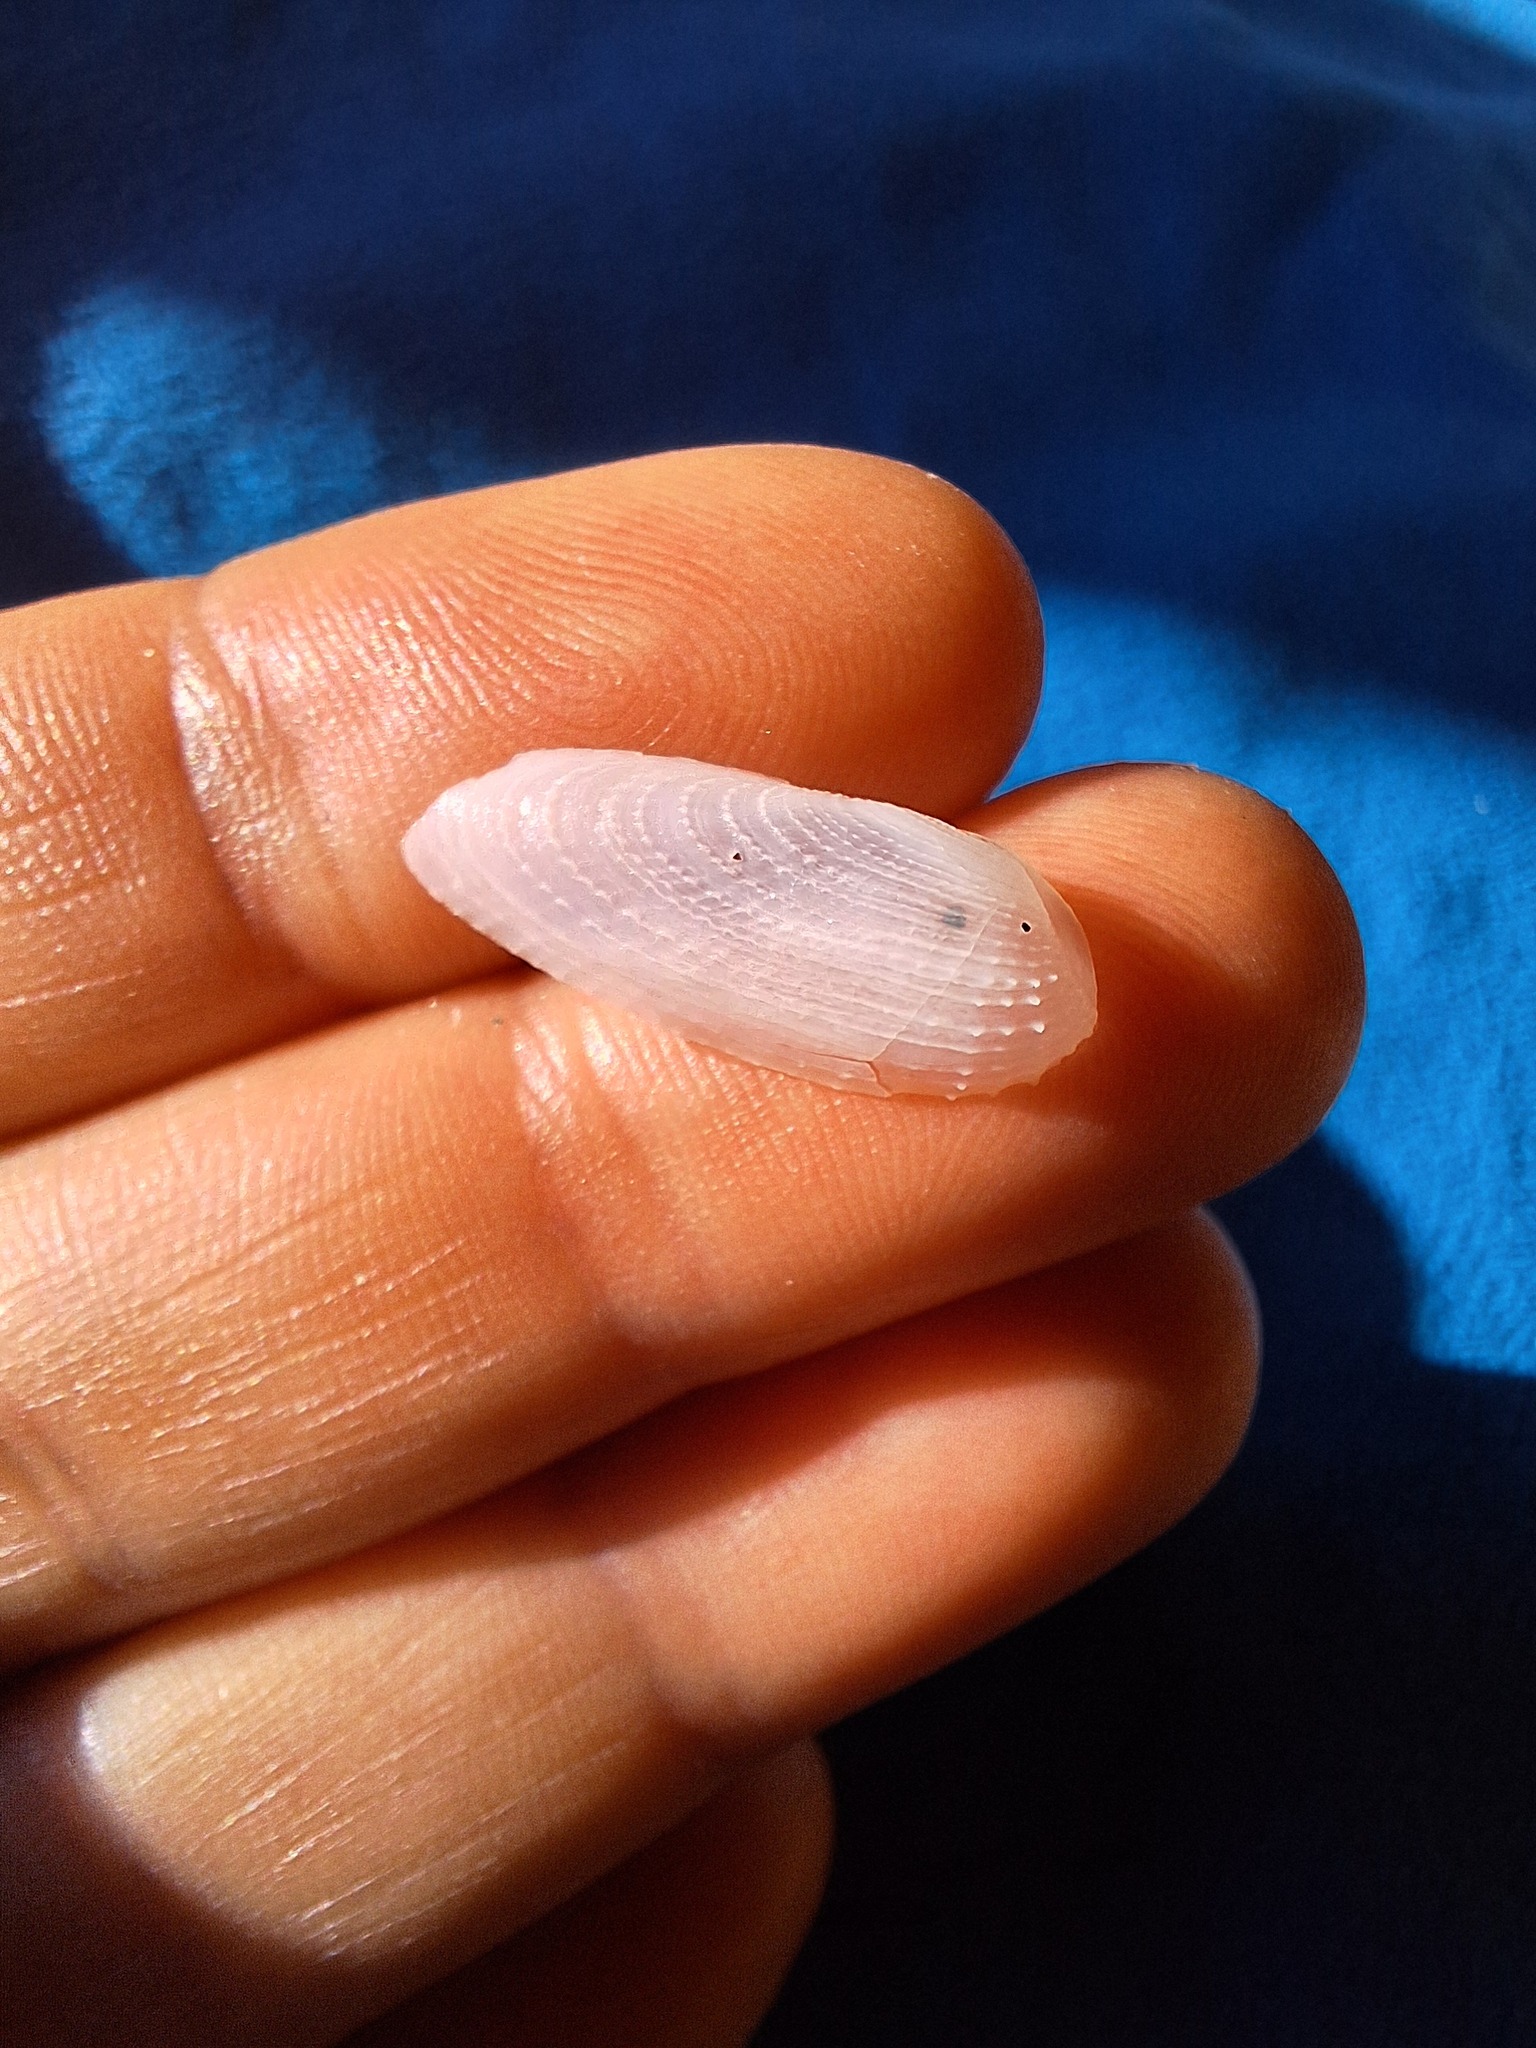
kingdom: Animalia
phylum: Mollusca
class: Bivalvia
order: Myida
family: Pholadidae
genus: Barnea
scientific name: Barnea candida
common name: White piddock
